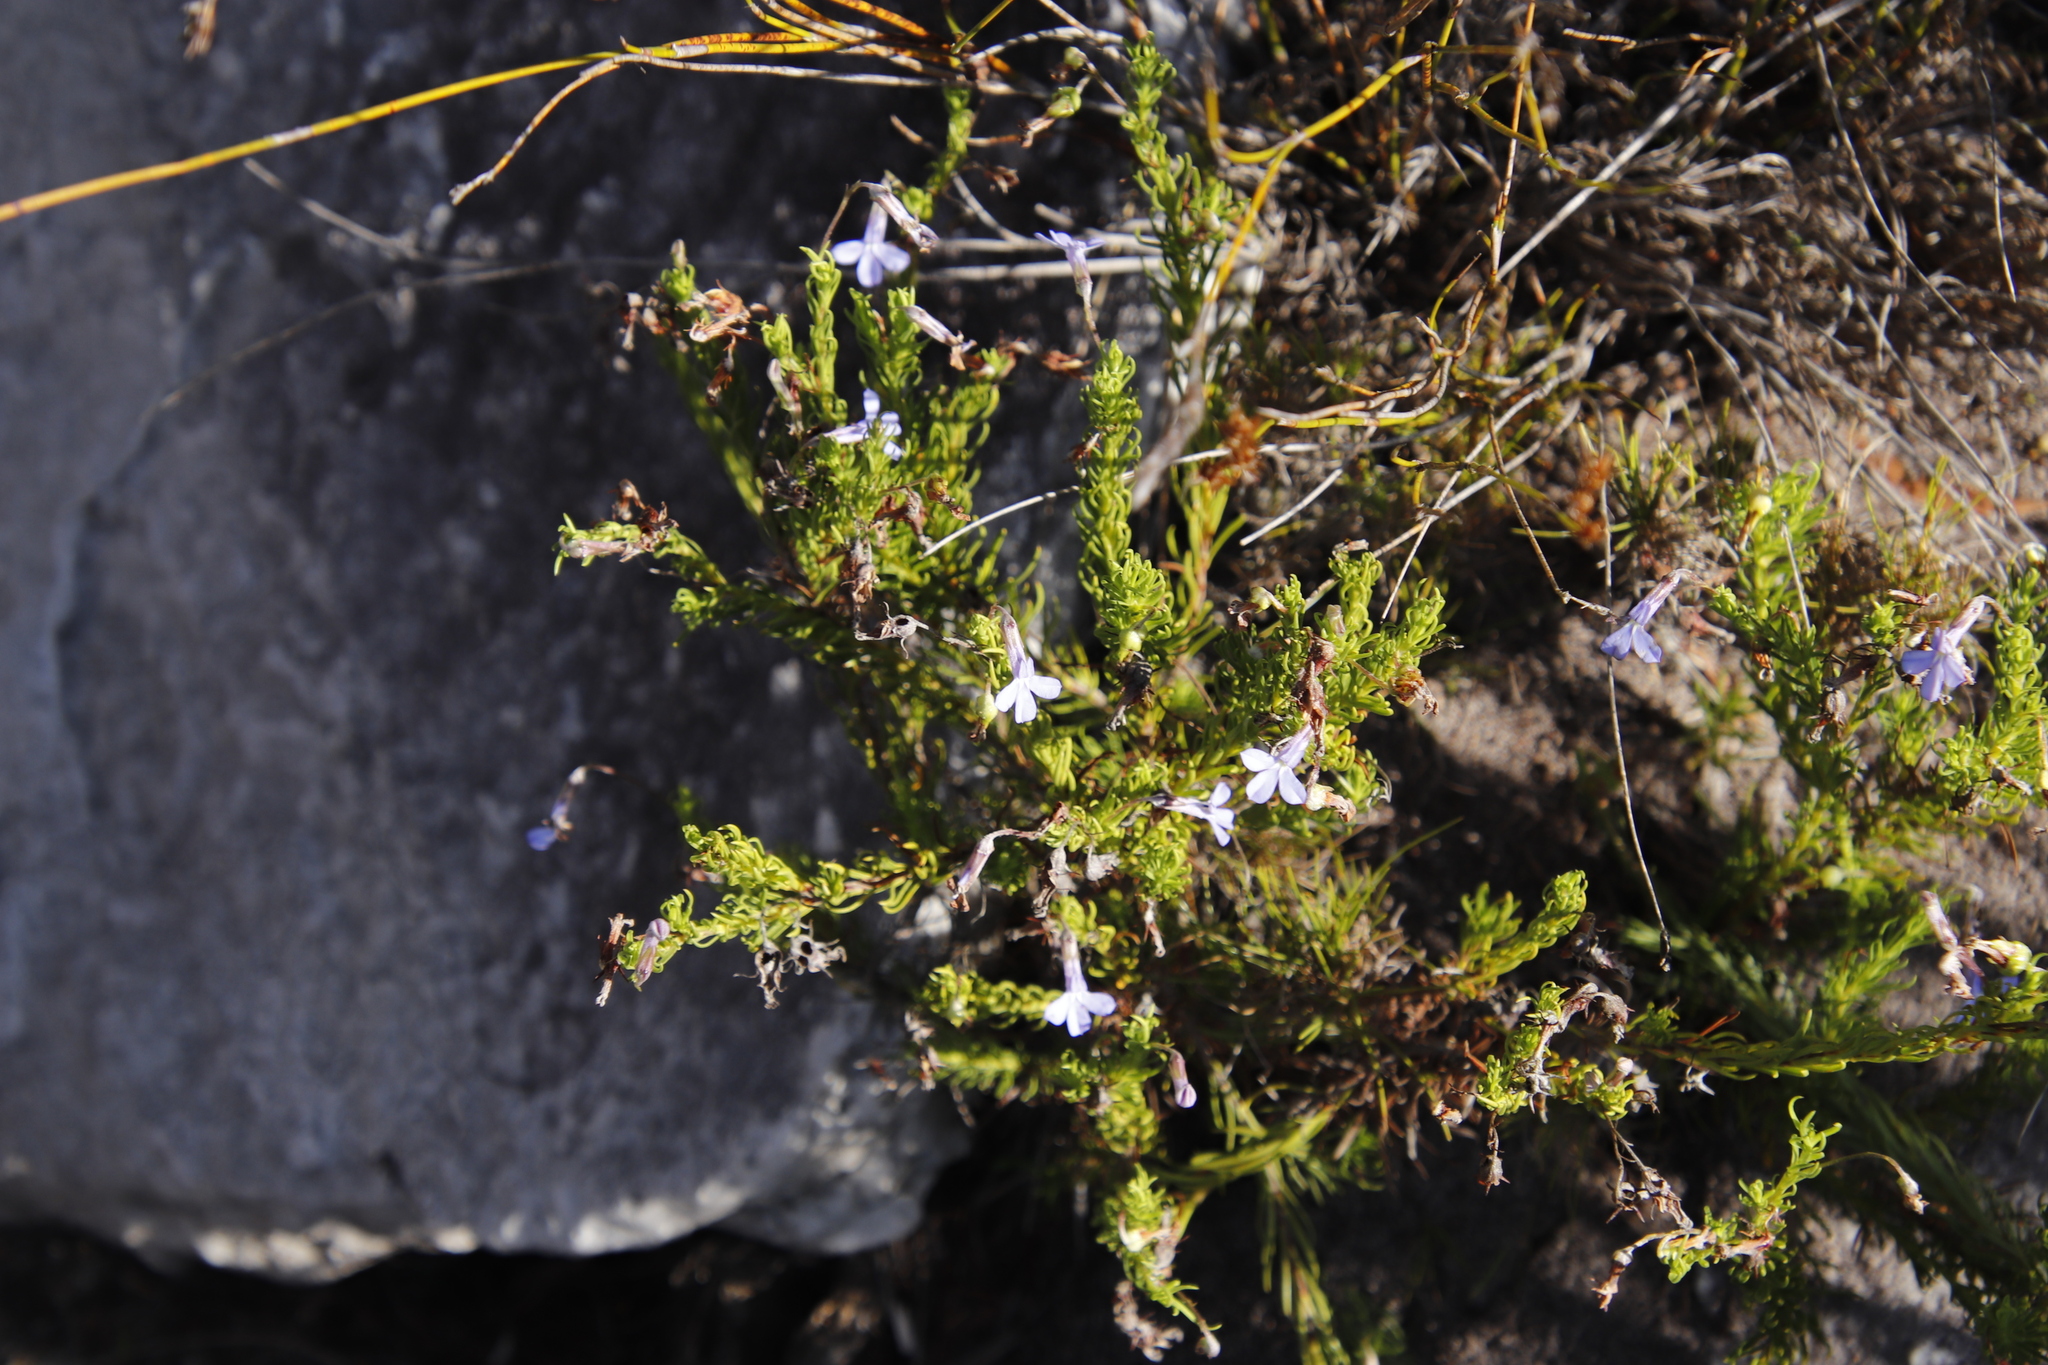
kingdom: Plantae
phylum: Tracheophyta
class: Magnoliopsida
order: Asterales
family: Campanulaceae
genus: Lobelia
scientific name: Lobelia pinifolia
